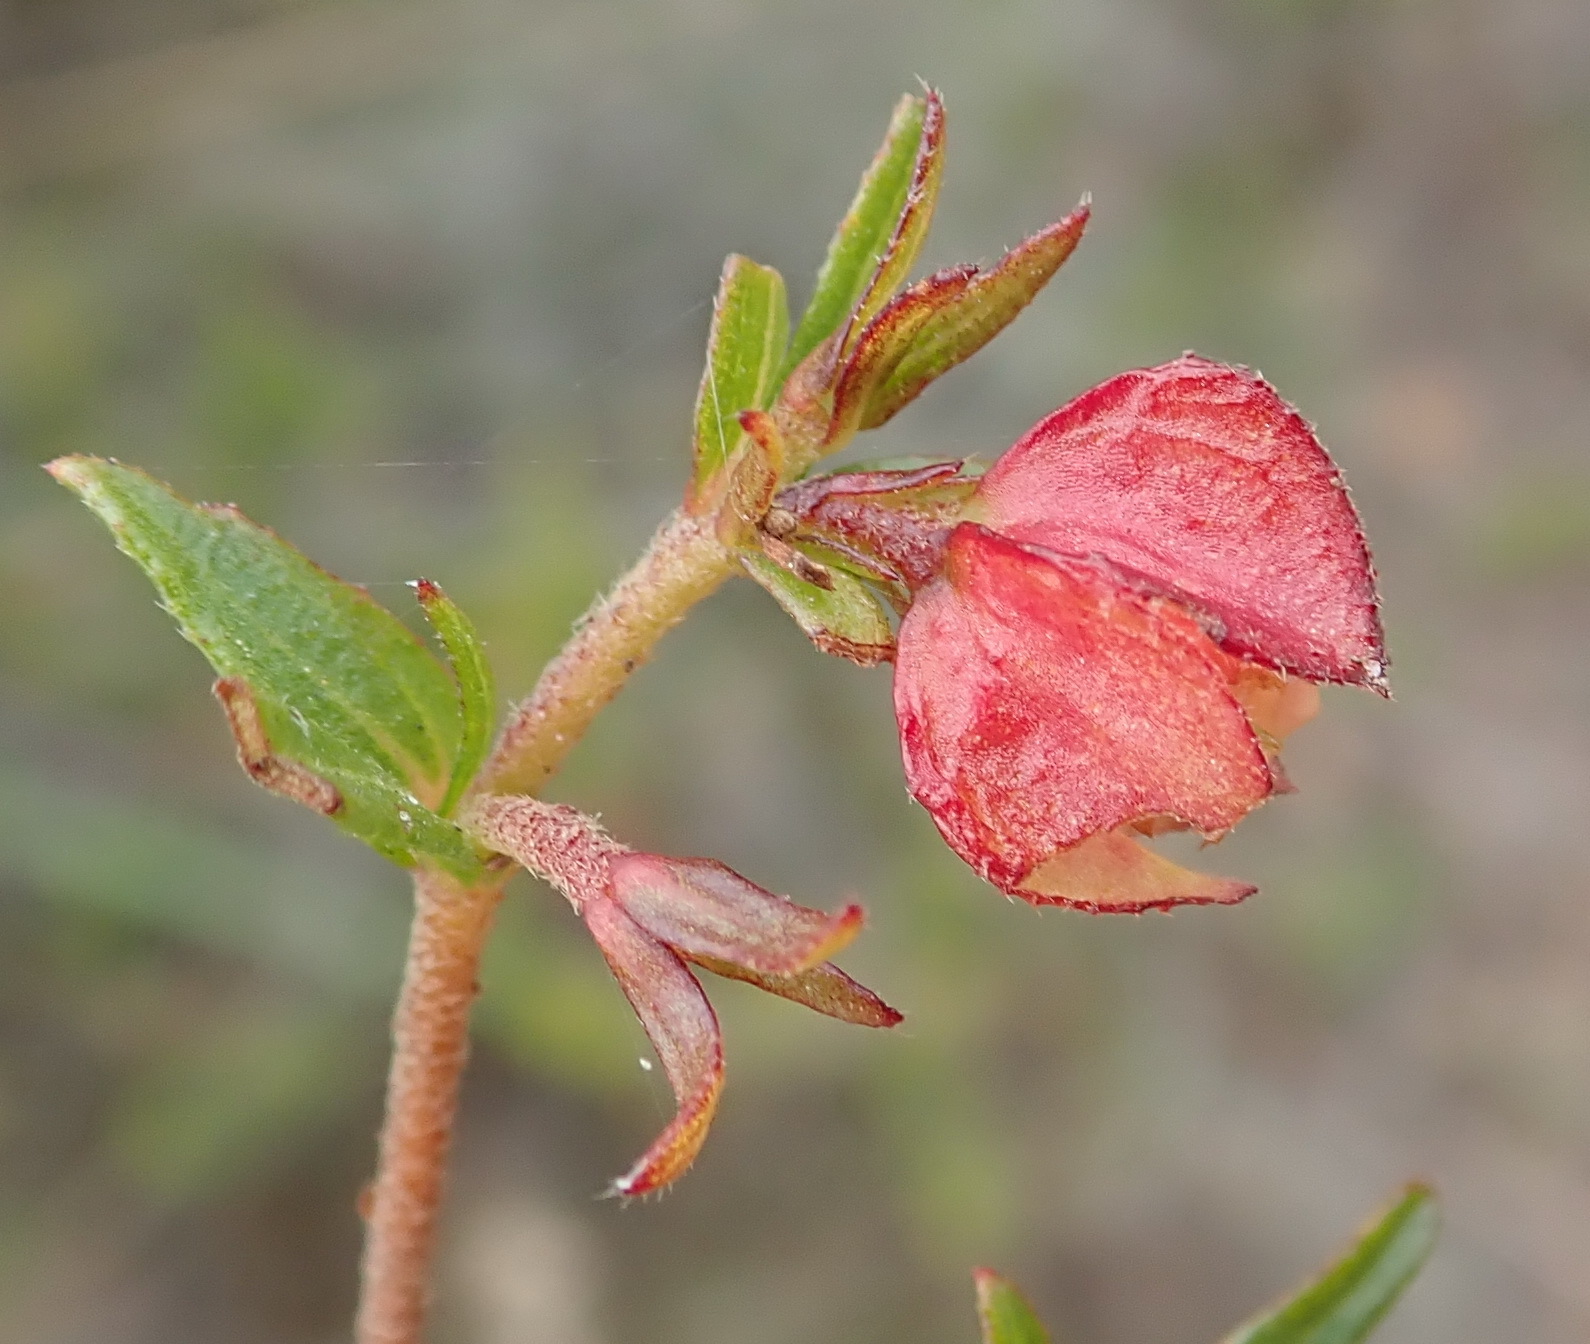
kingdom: Plantae
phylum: Tracheophyta
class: Magnoliopsida
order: Malvales
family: Malvaceae
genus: Hermannia
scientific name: Hermannia angularis
